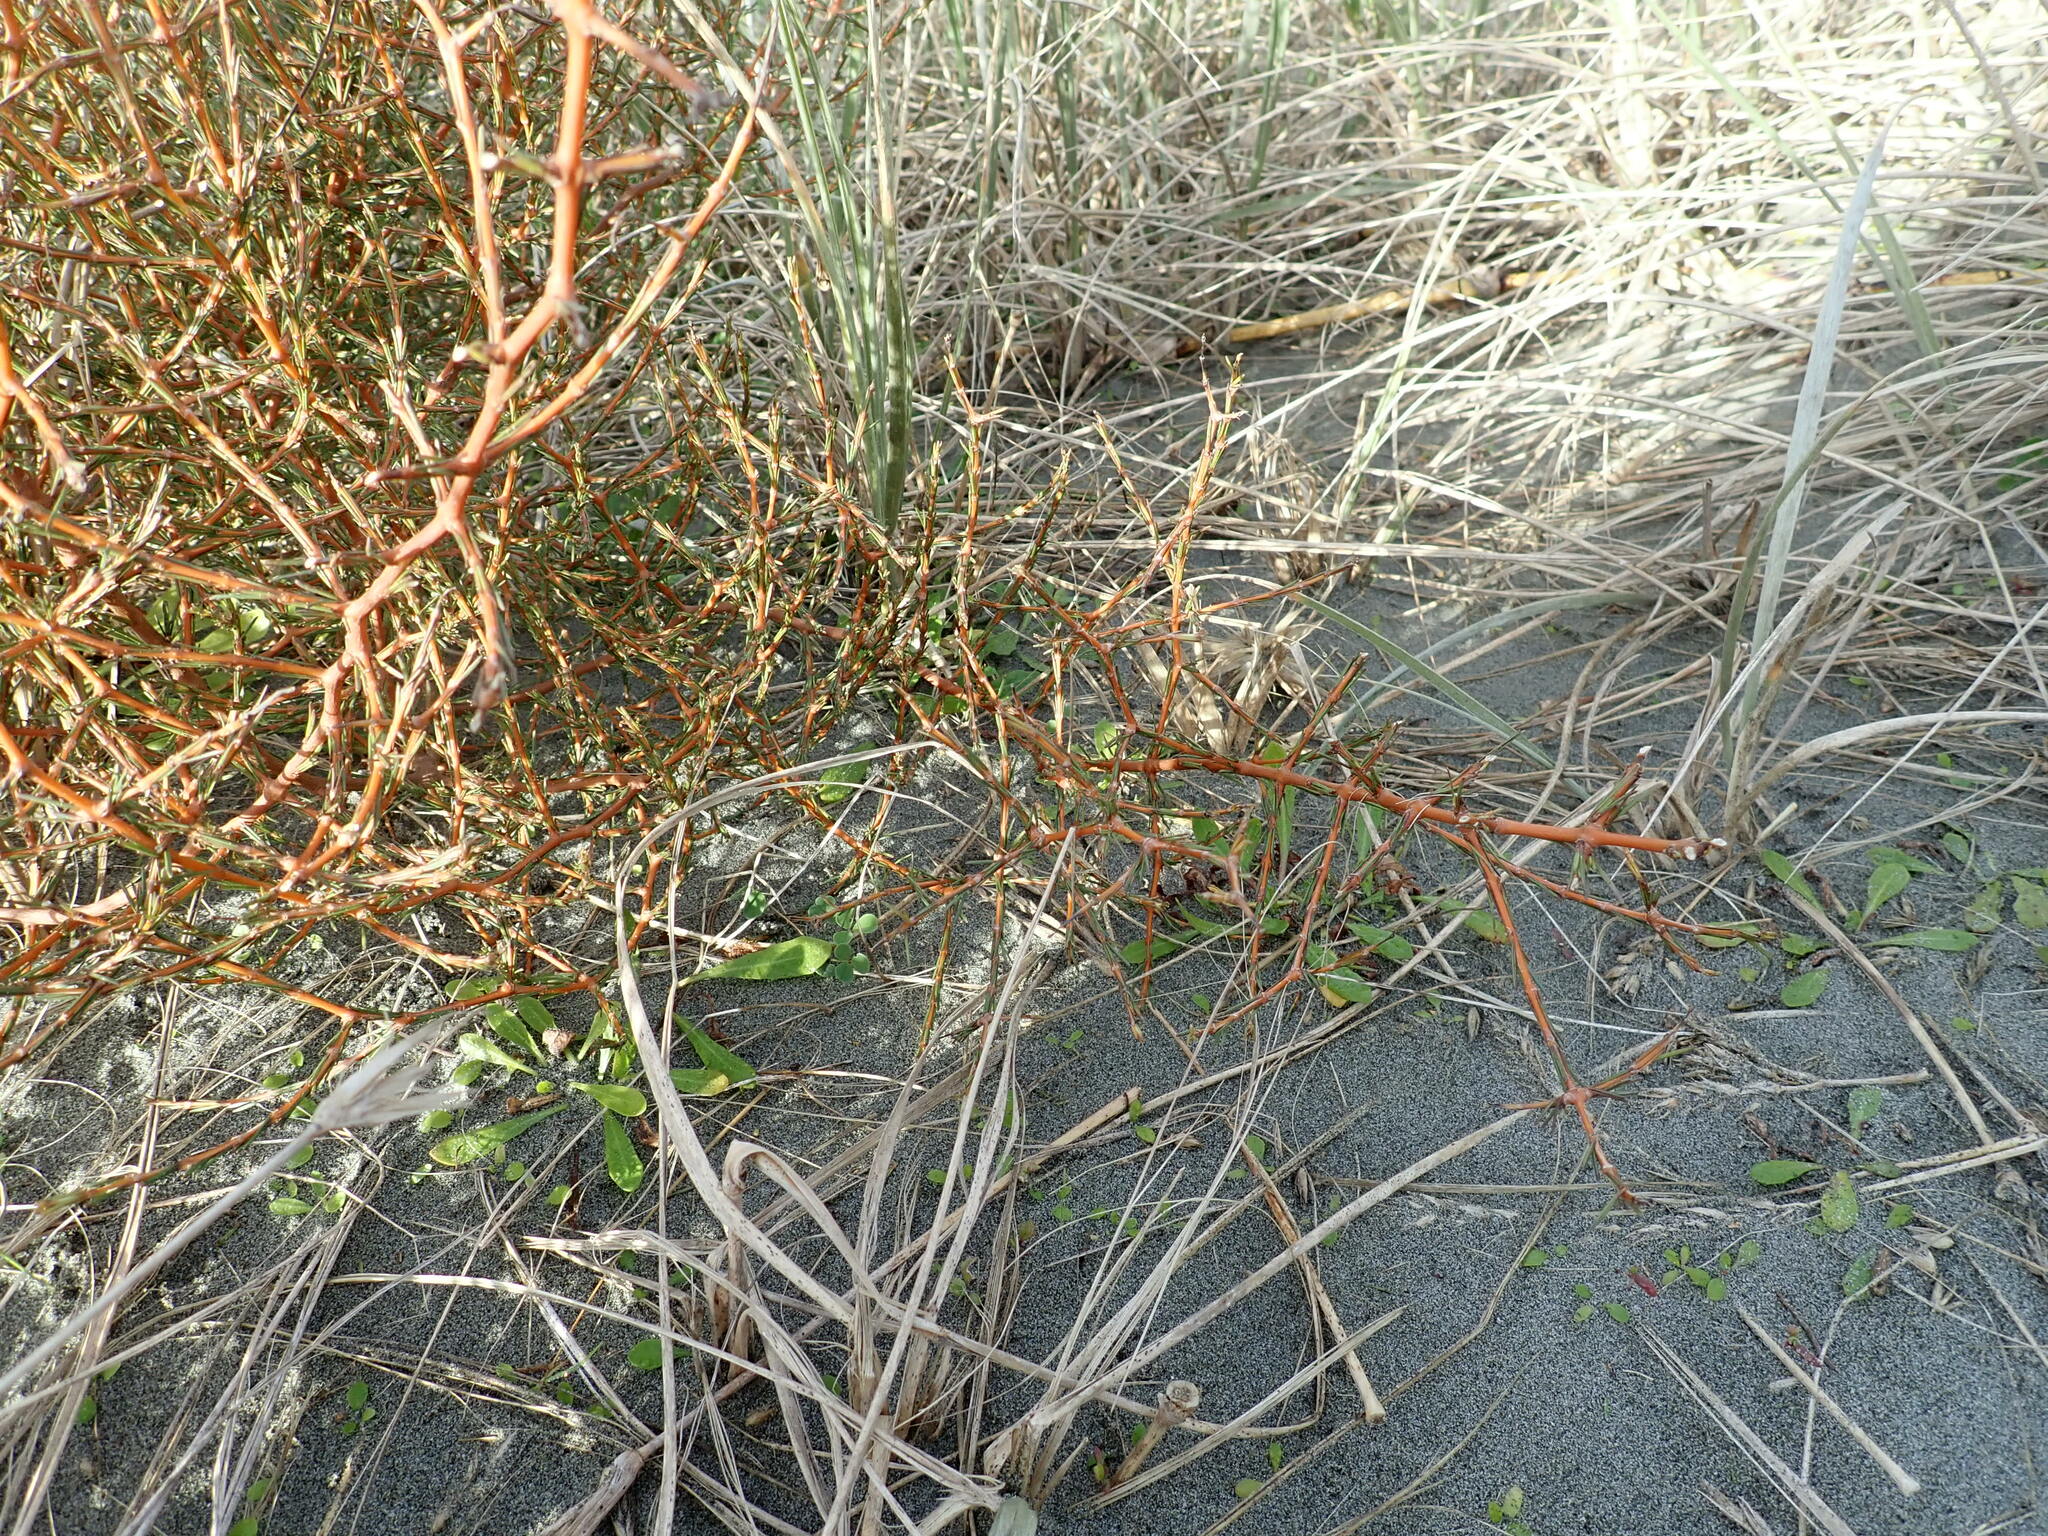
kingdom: Plantae
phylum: Tracheophyta
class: Magnoliopsida
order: Gentianales
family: Rubiaceae
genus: Coprosma
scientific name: Coprosma acerosa
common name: Sand coprosma
